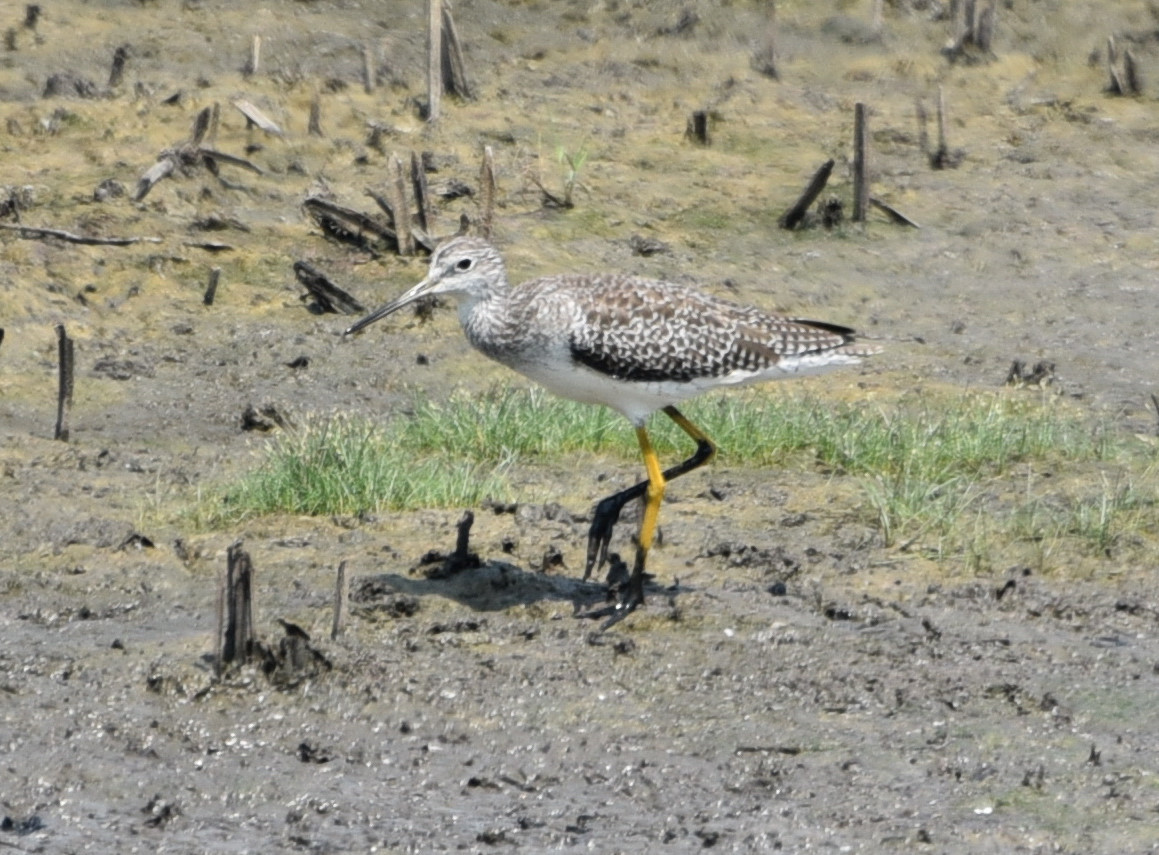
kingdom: Animalia
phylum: Chordata
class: Aves
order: Charadriiformes
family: Scolopacidae
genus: Tringa
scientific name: Tringa melanoleuca
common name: Greater yellowlegs
